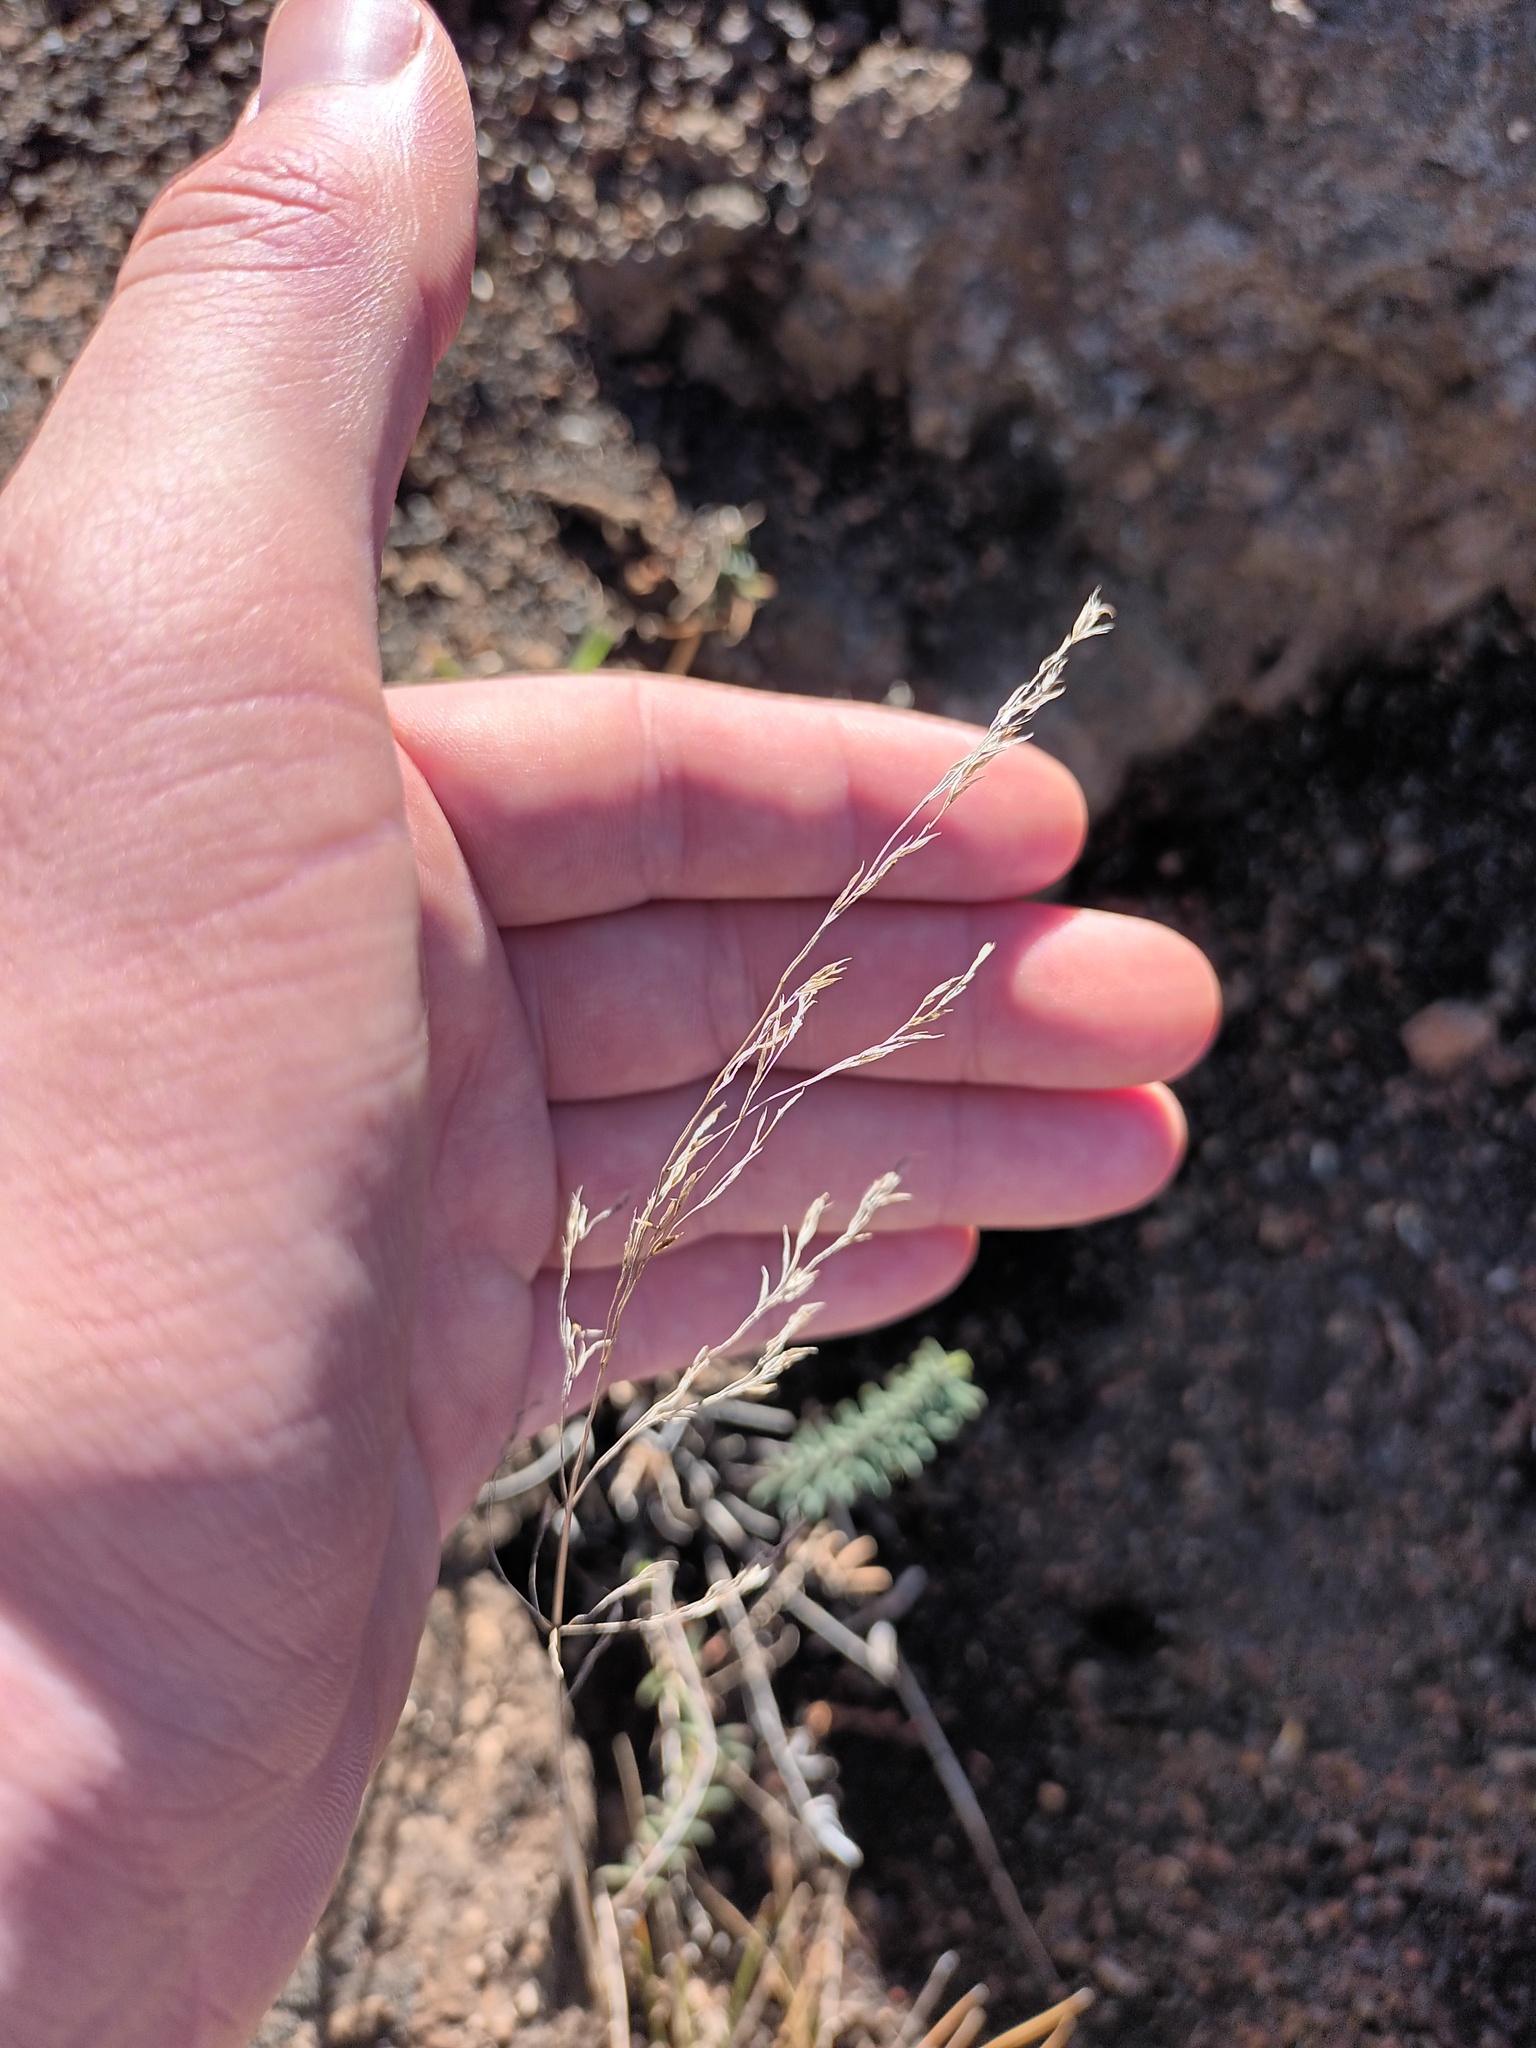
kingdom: Plantae
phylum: Tracheophyta
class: Liliopsida
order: Poales
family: Poaceae
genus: Deschampsia
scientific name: Deschampsia nubigena
